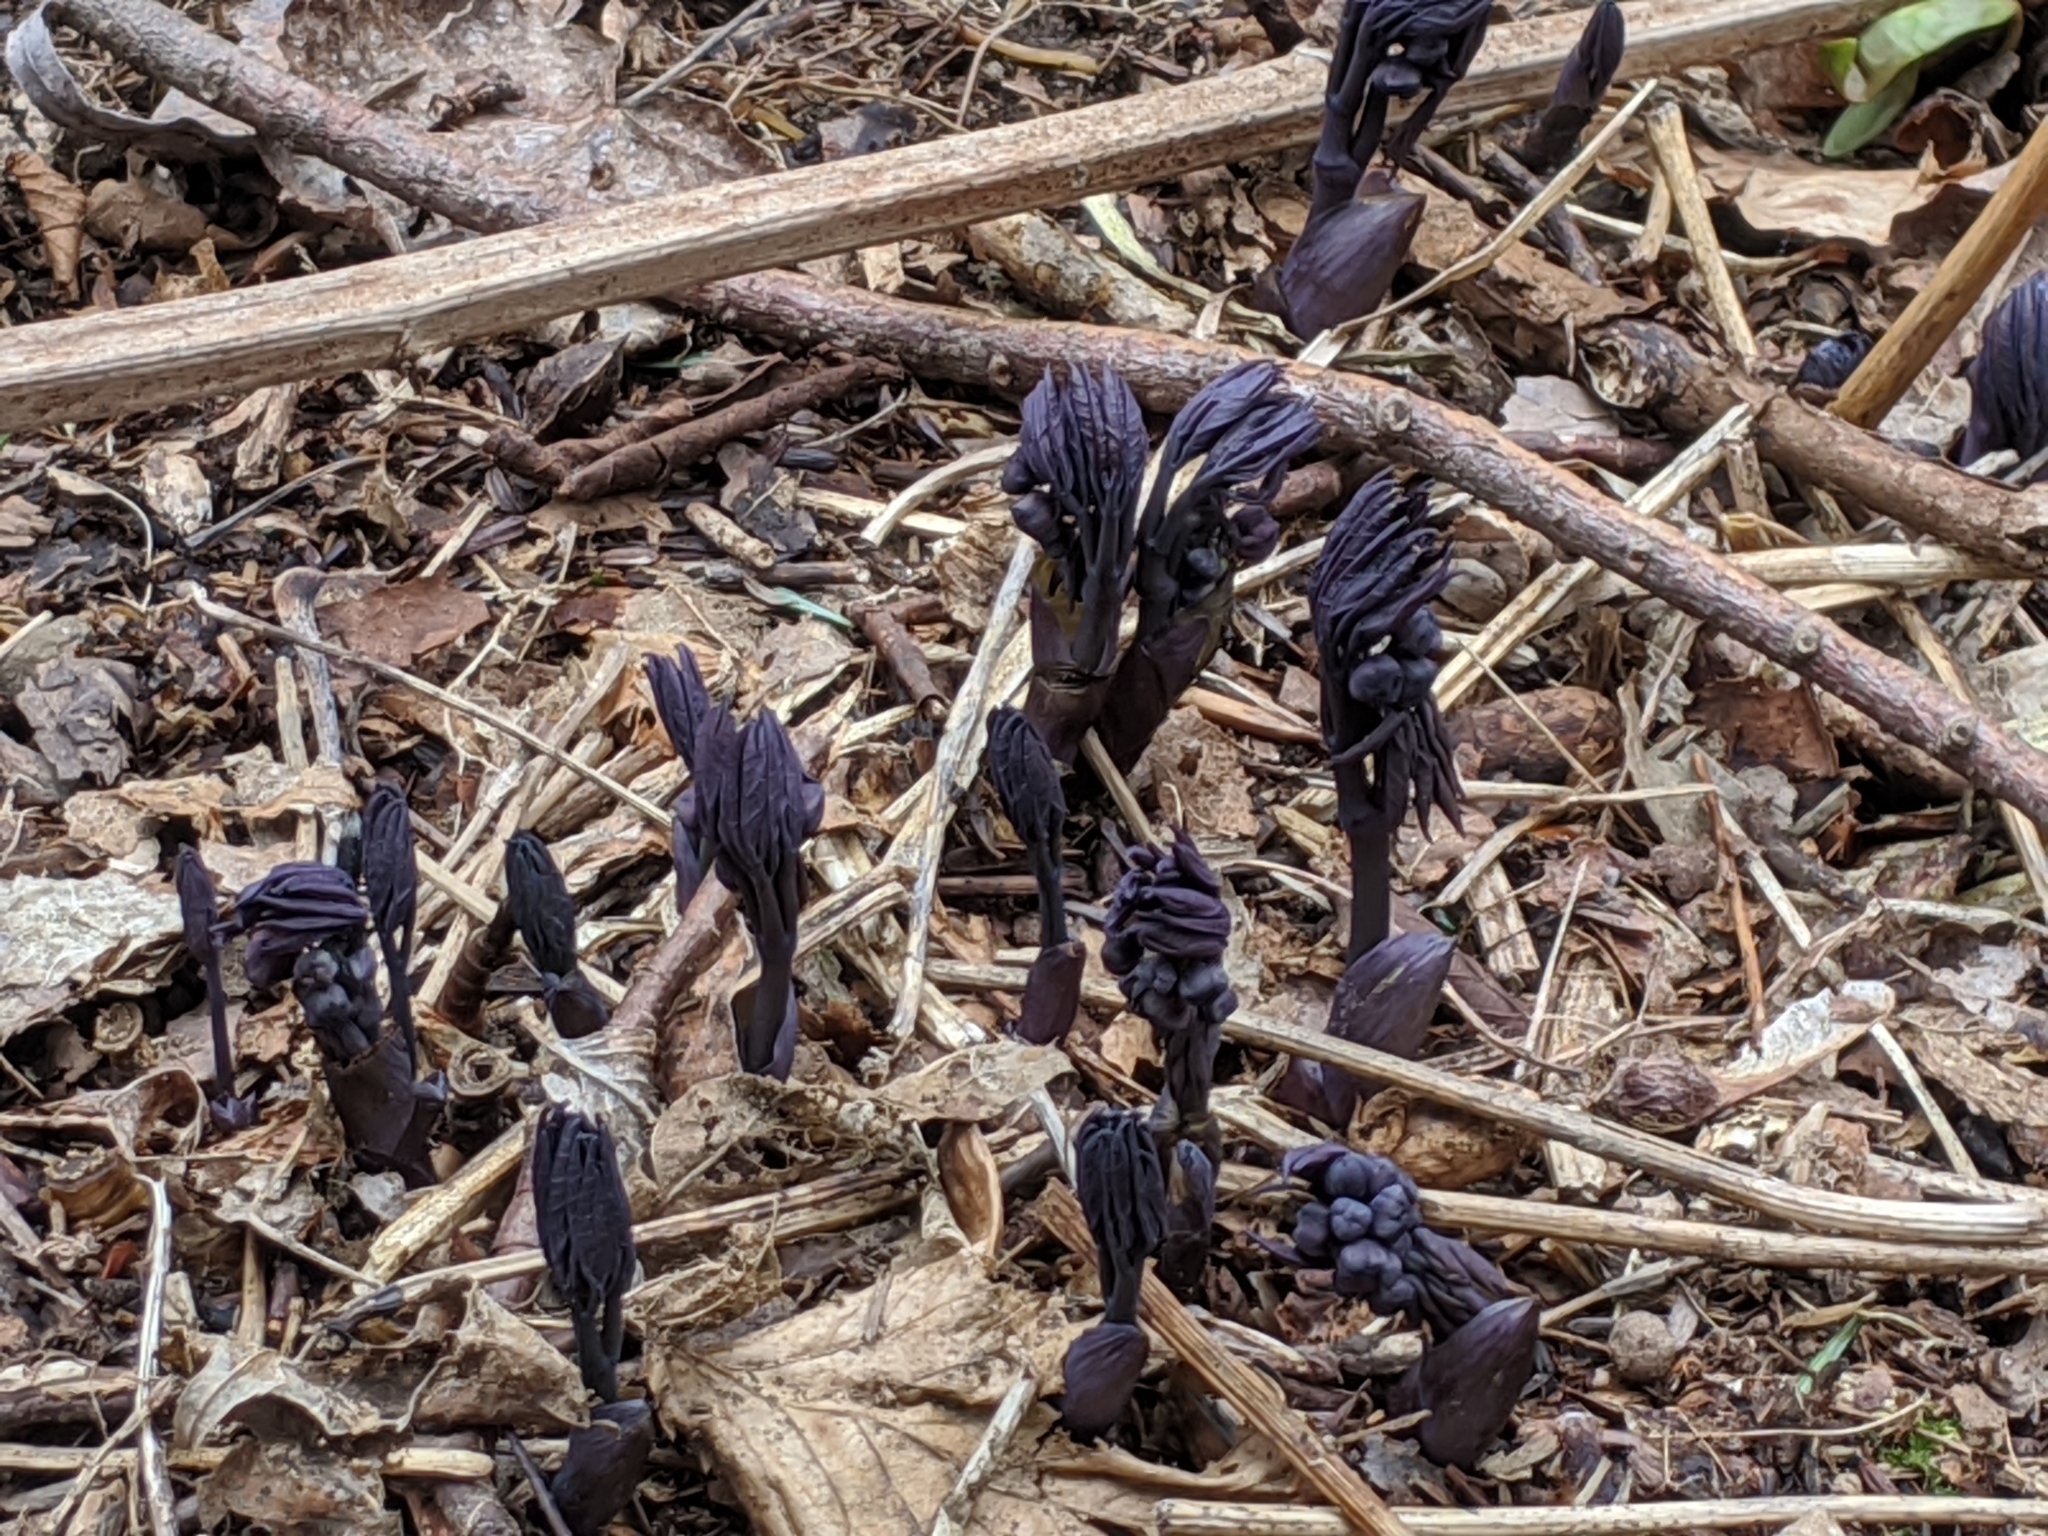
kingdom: Plantae
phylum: Tracheophyta
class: Magnoliopsida
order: Ranunculales
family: Berberidaceae
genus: Caulophyllum
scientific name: Caulophyllum giganteum
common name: Blue cohosh
